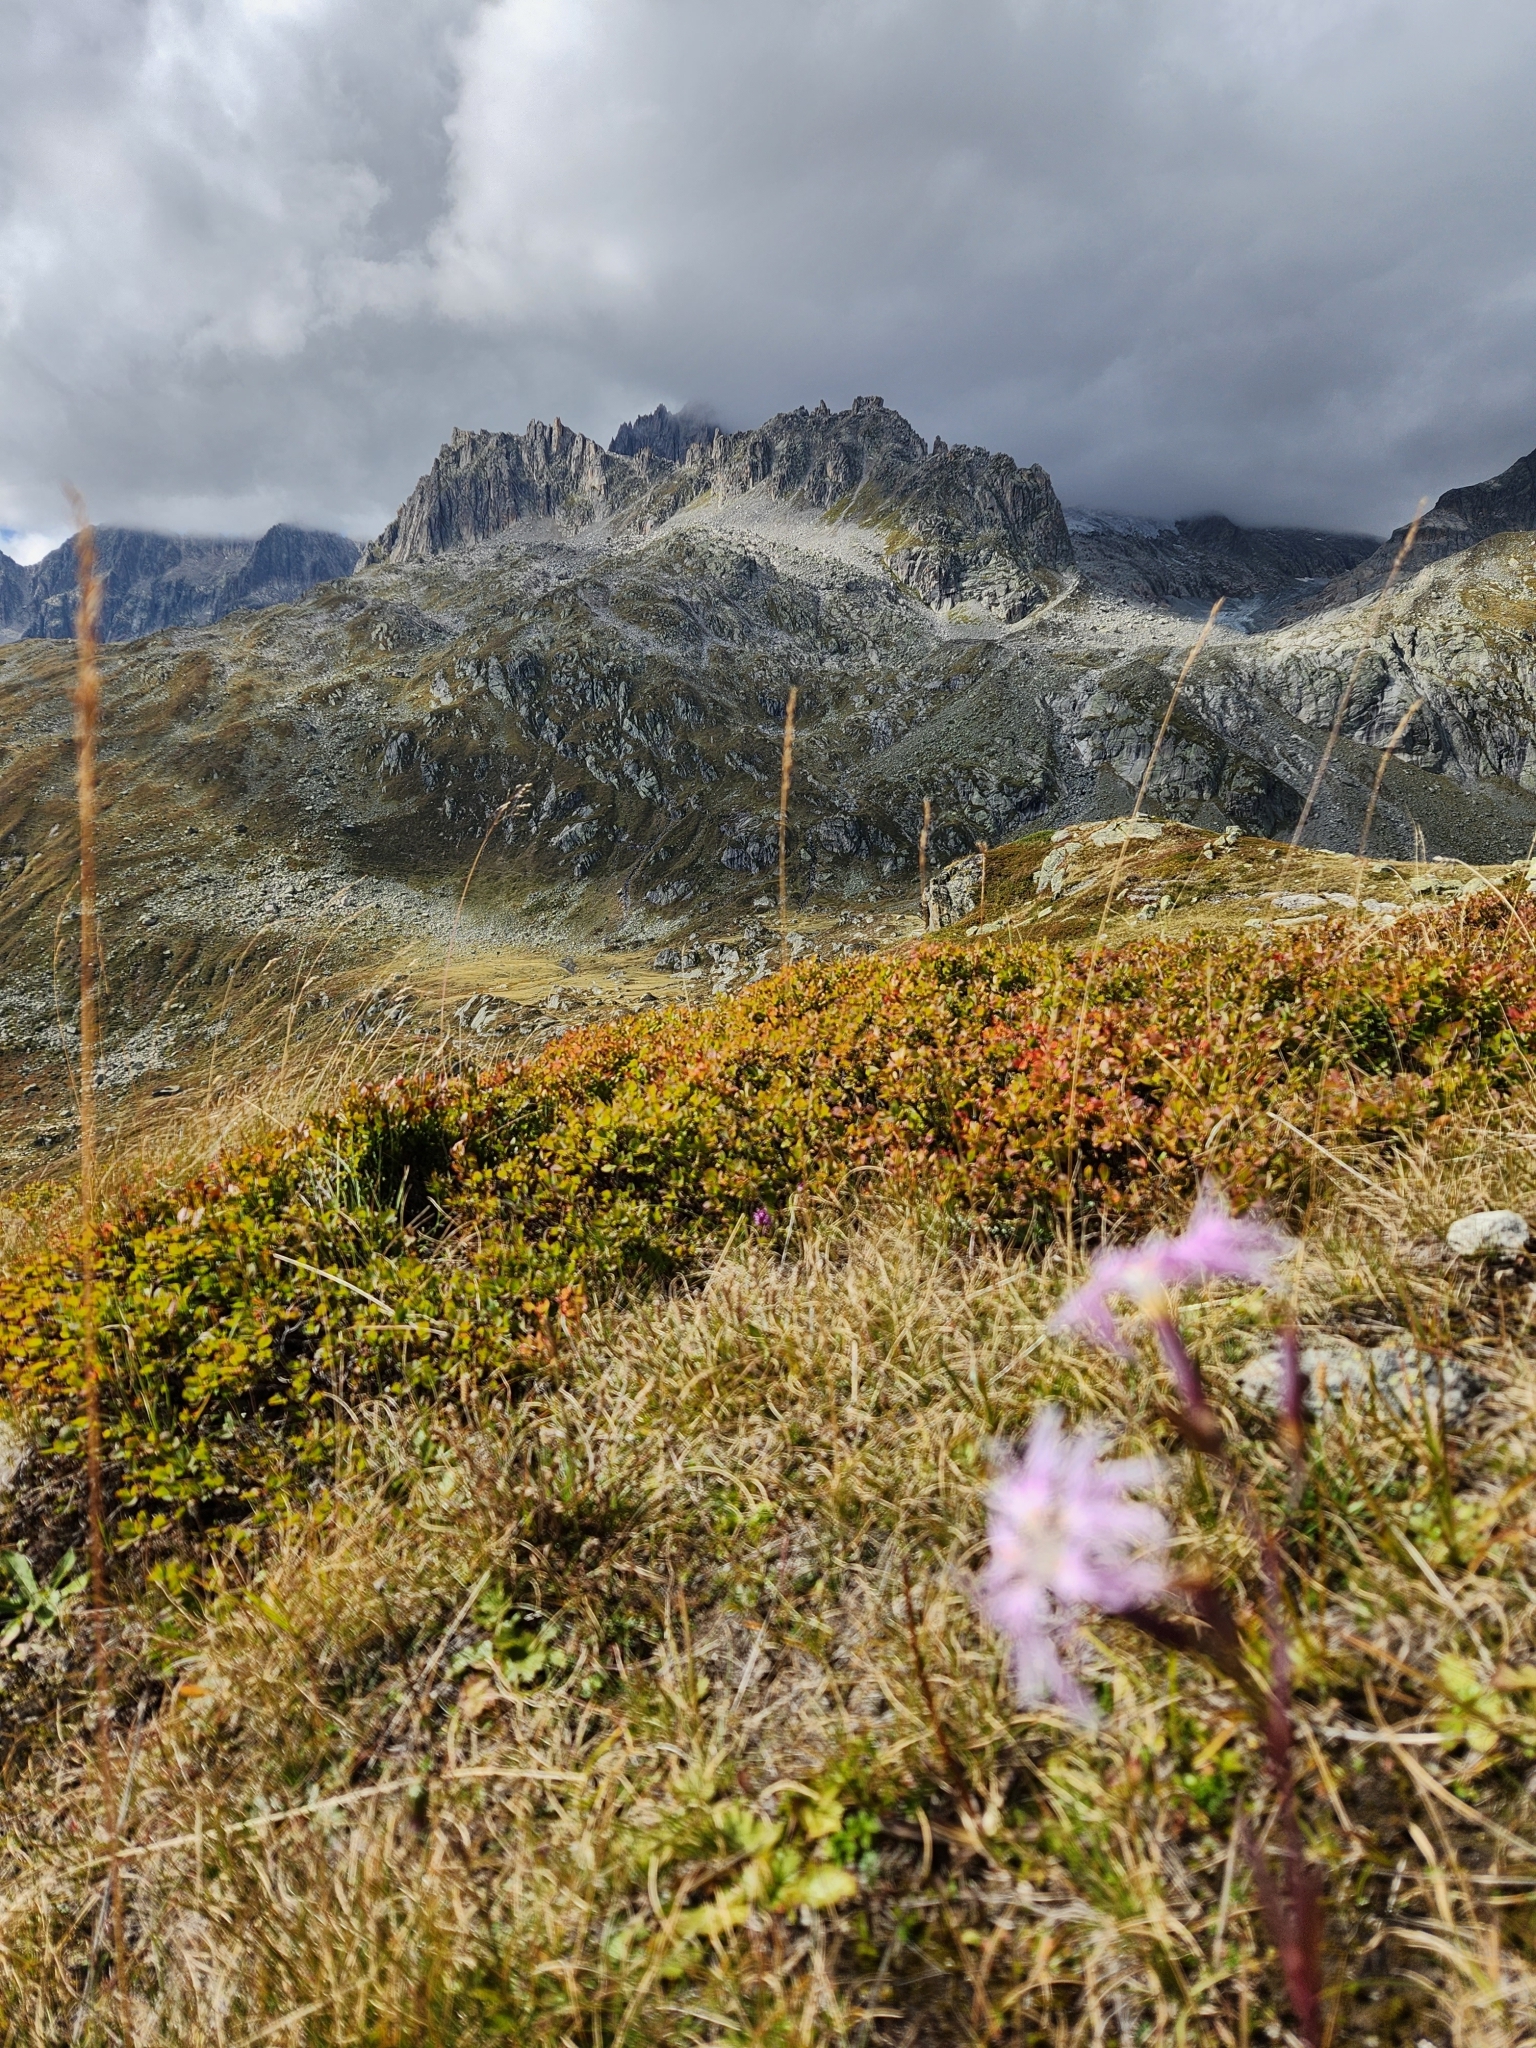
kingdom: Plantae
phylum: Tracheophyta
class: Magnoliopsida
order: Caryophyllales
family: Caryophyllaceae
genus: Dianthus
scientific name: Dianthus superbus
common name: Fringed pink
